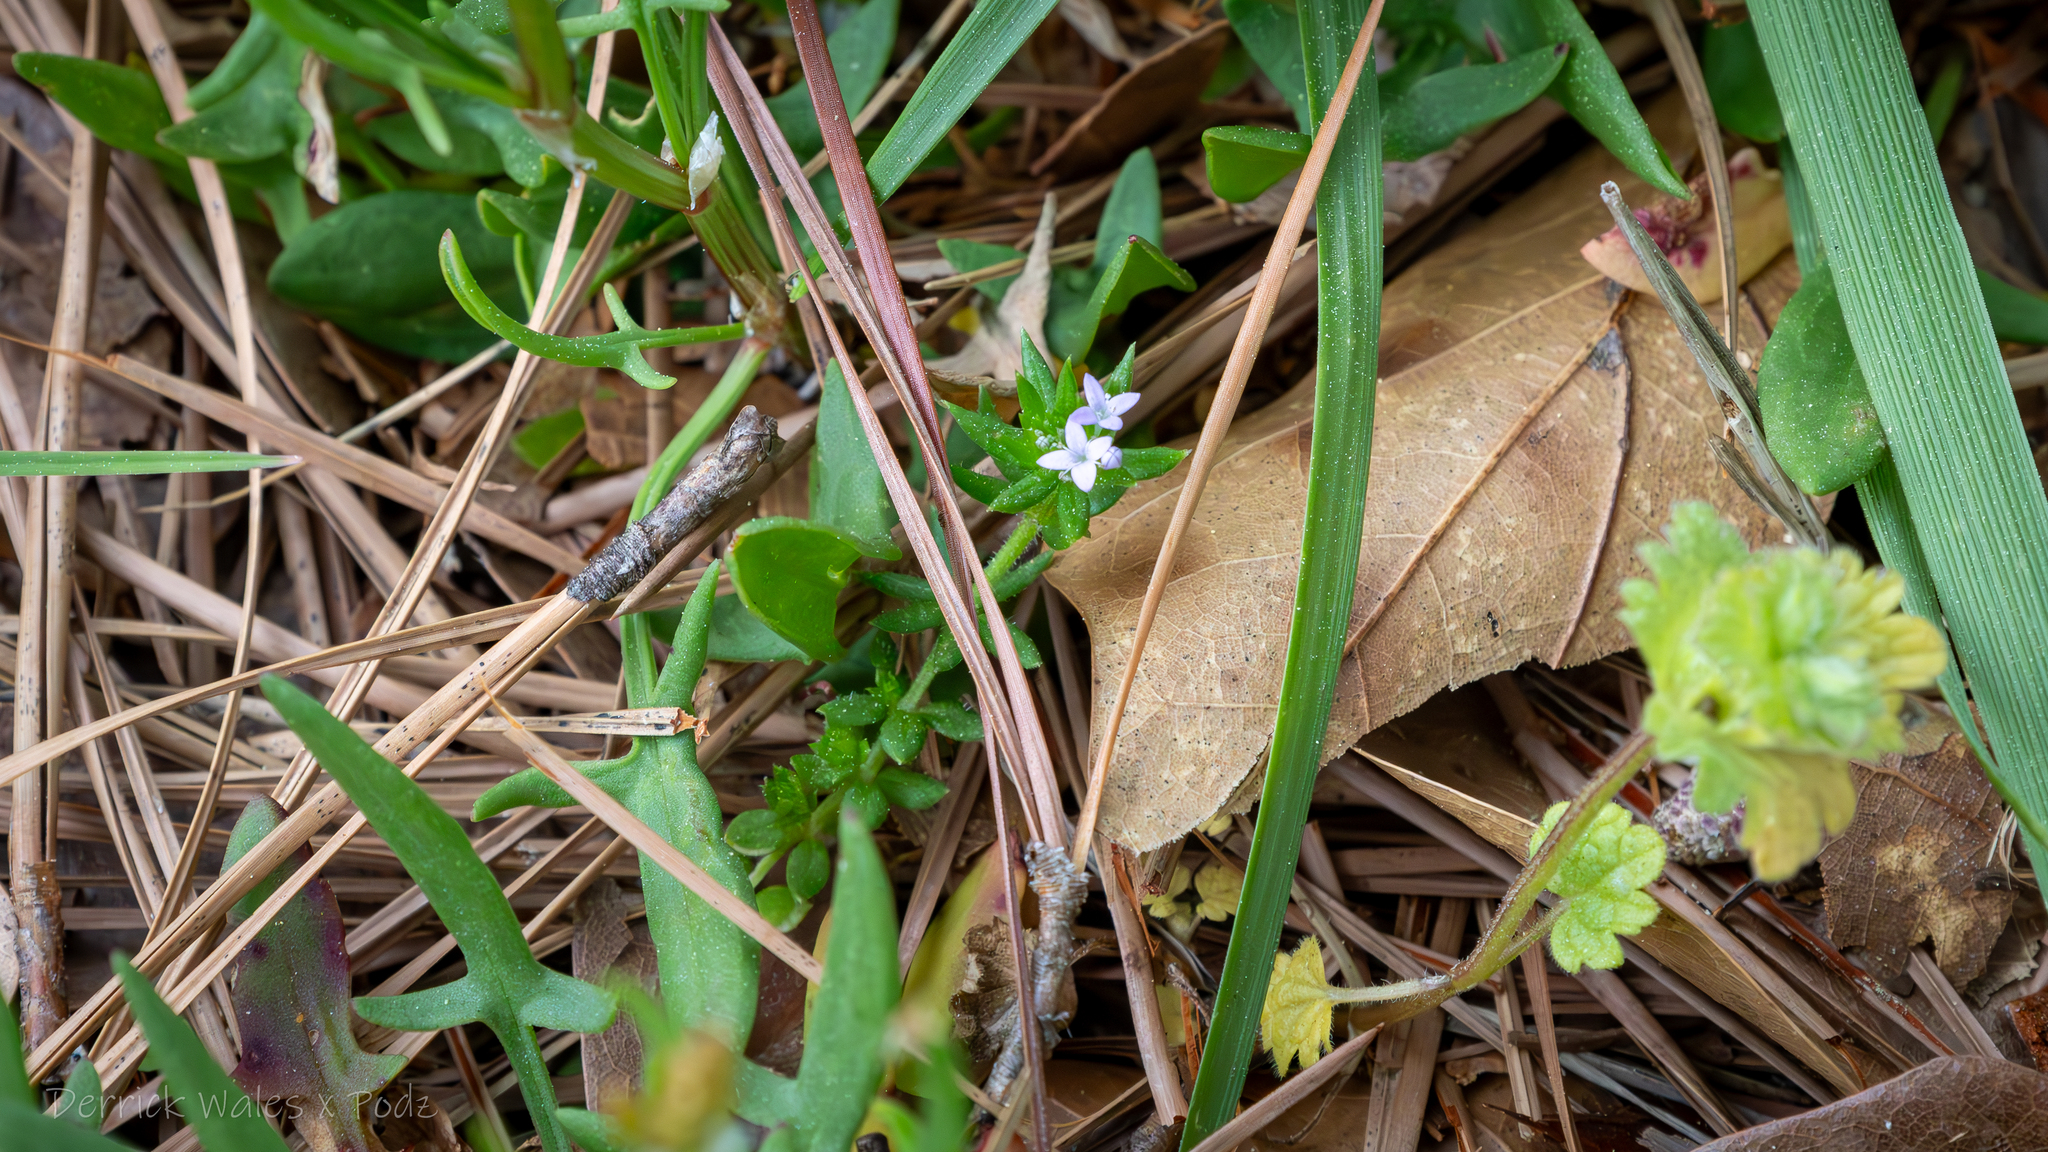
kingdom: Plantae
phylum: Tracheophyta
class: Magnoliopsida
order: Gentianales
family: Rubiaceae
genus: Sherardia
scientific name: Sherardia arvensis
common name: Field madder
